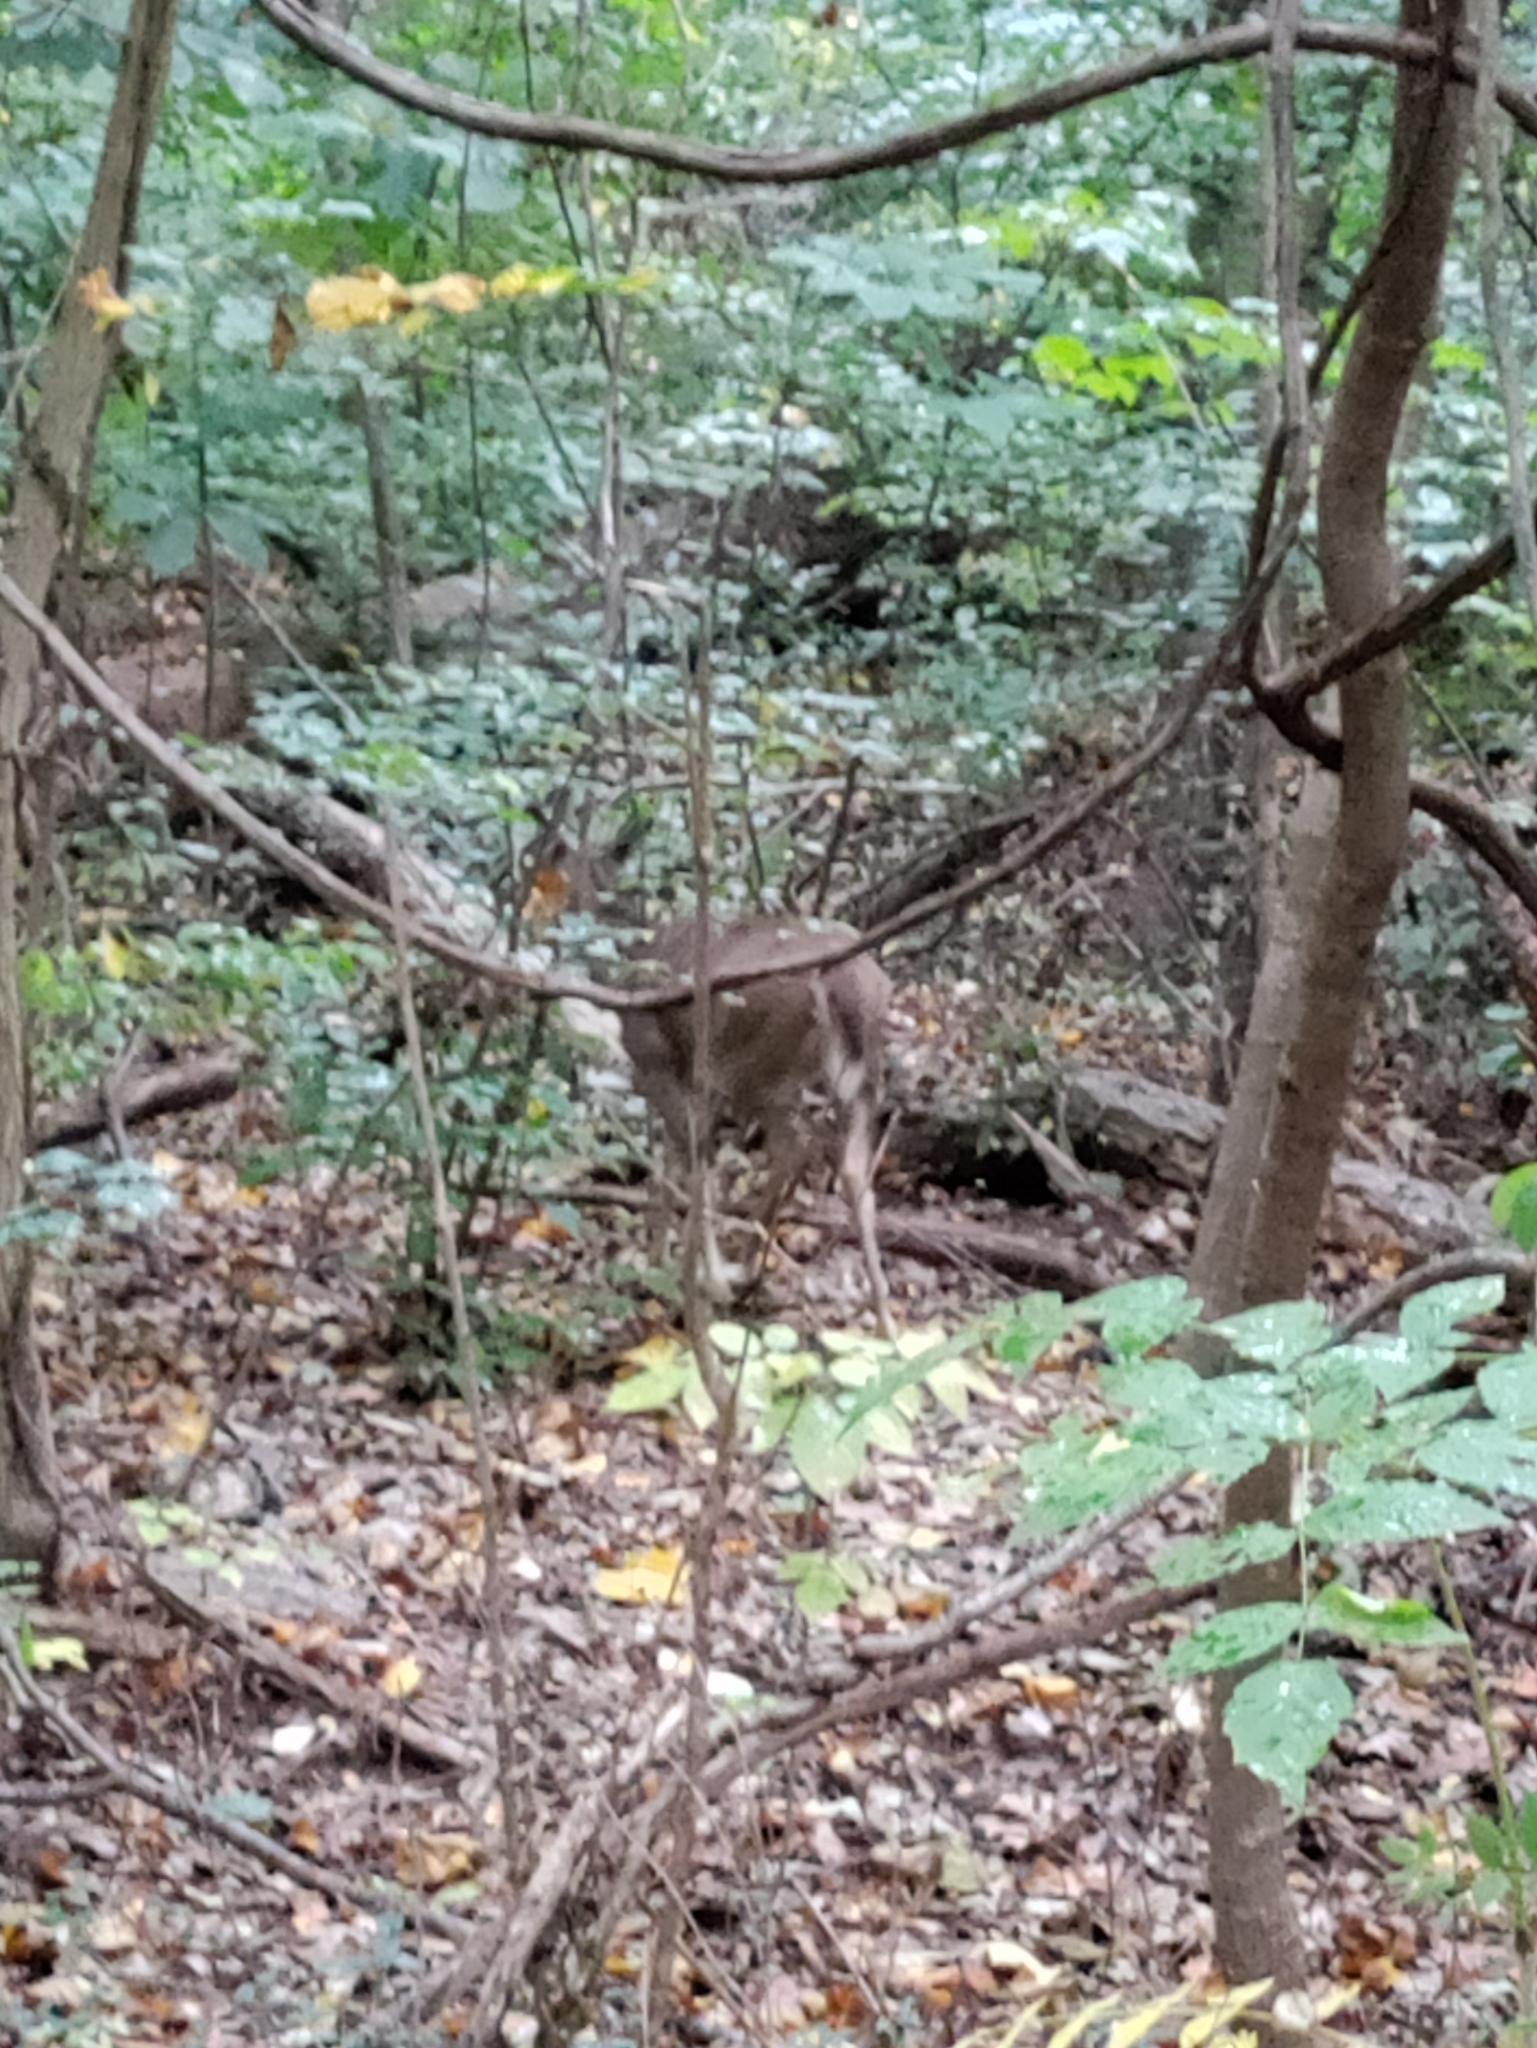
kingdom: Animalia
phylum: Chordata
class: Mammalia
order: Artiodactyla
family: Cervidae
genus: Odocoileus
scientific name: Odocoileus virginianus
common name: White-tailed deer
